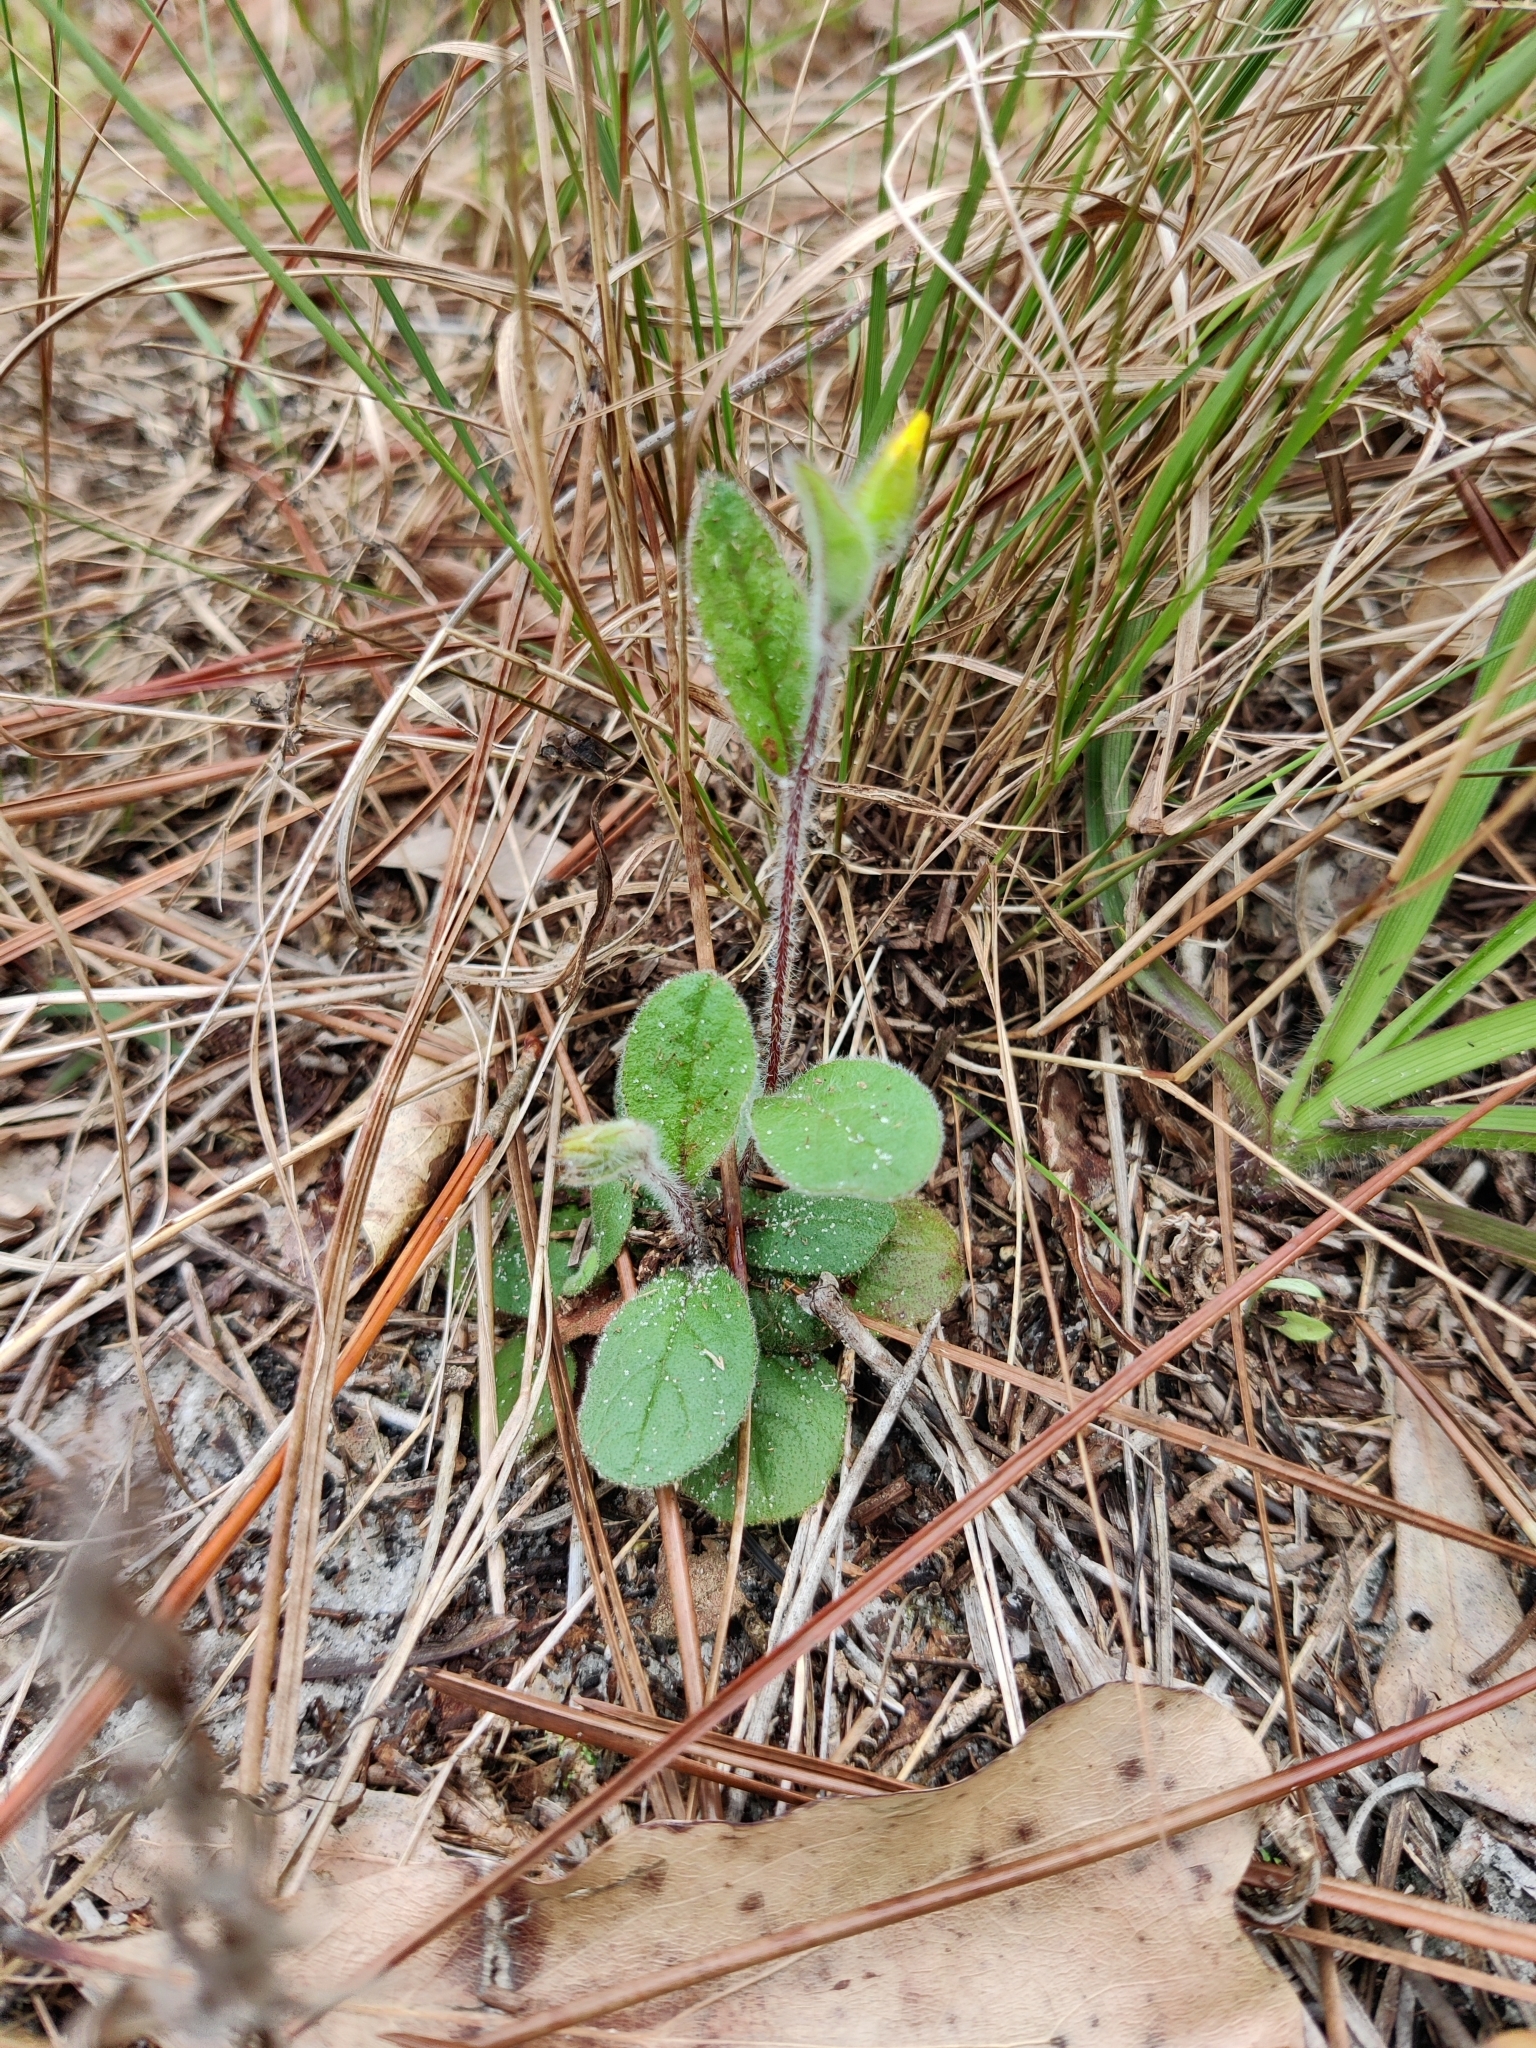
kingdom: Plantae
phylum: Tracheophyta
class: Magnoliopsida
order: Malvales
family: Cistaceae
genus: Crocanthemum
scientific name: Crocanthemum carolinianum
